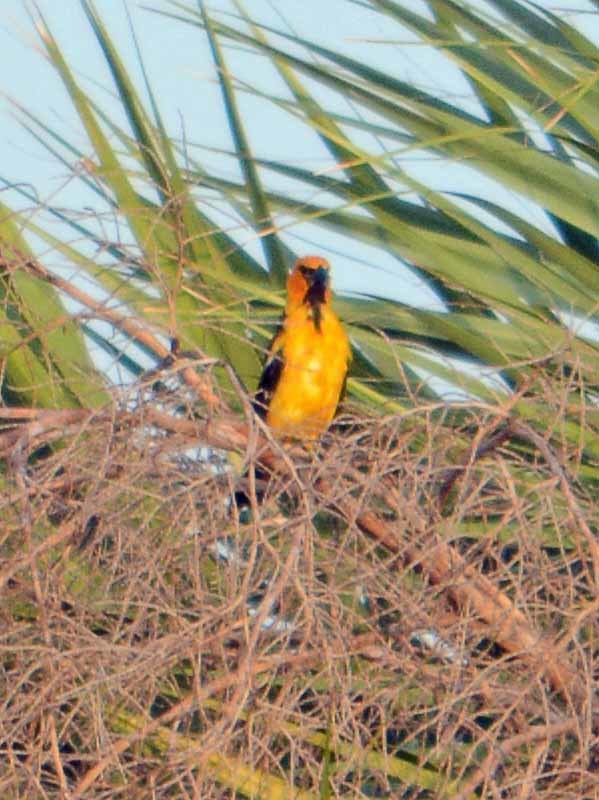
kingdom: Animalia
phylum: Chordata
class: Aves
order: Passeriformes
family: Icteridae
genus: Icterus
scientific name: Icterus gularis
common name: Altamira oriole
